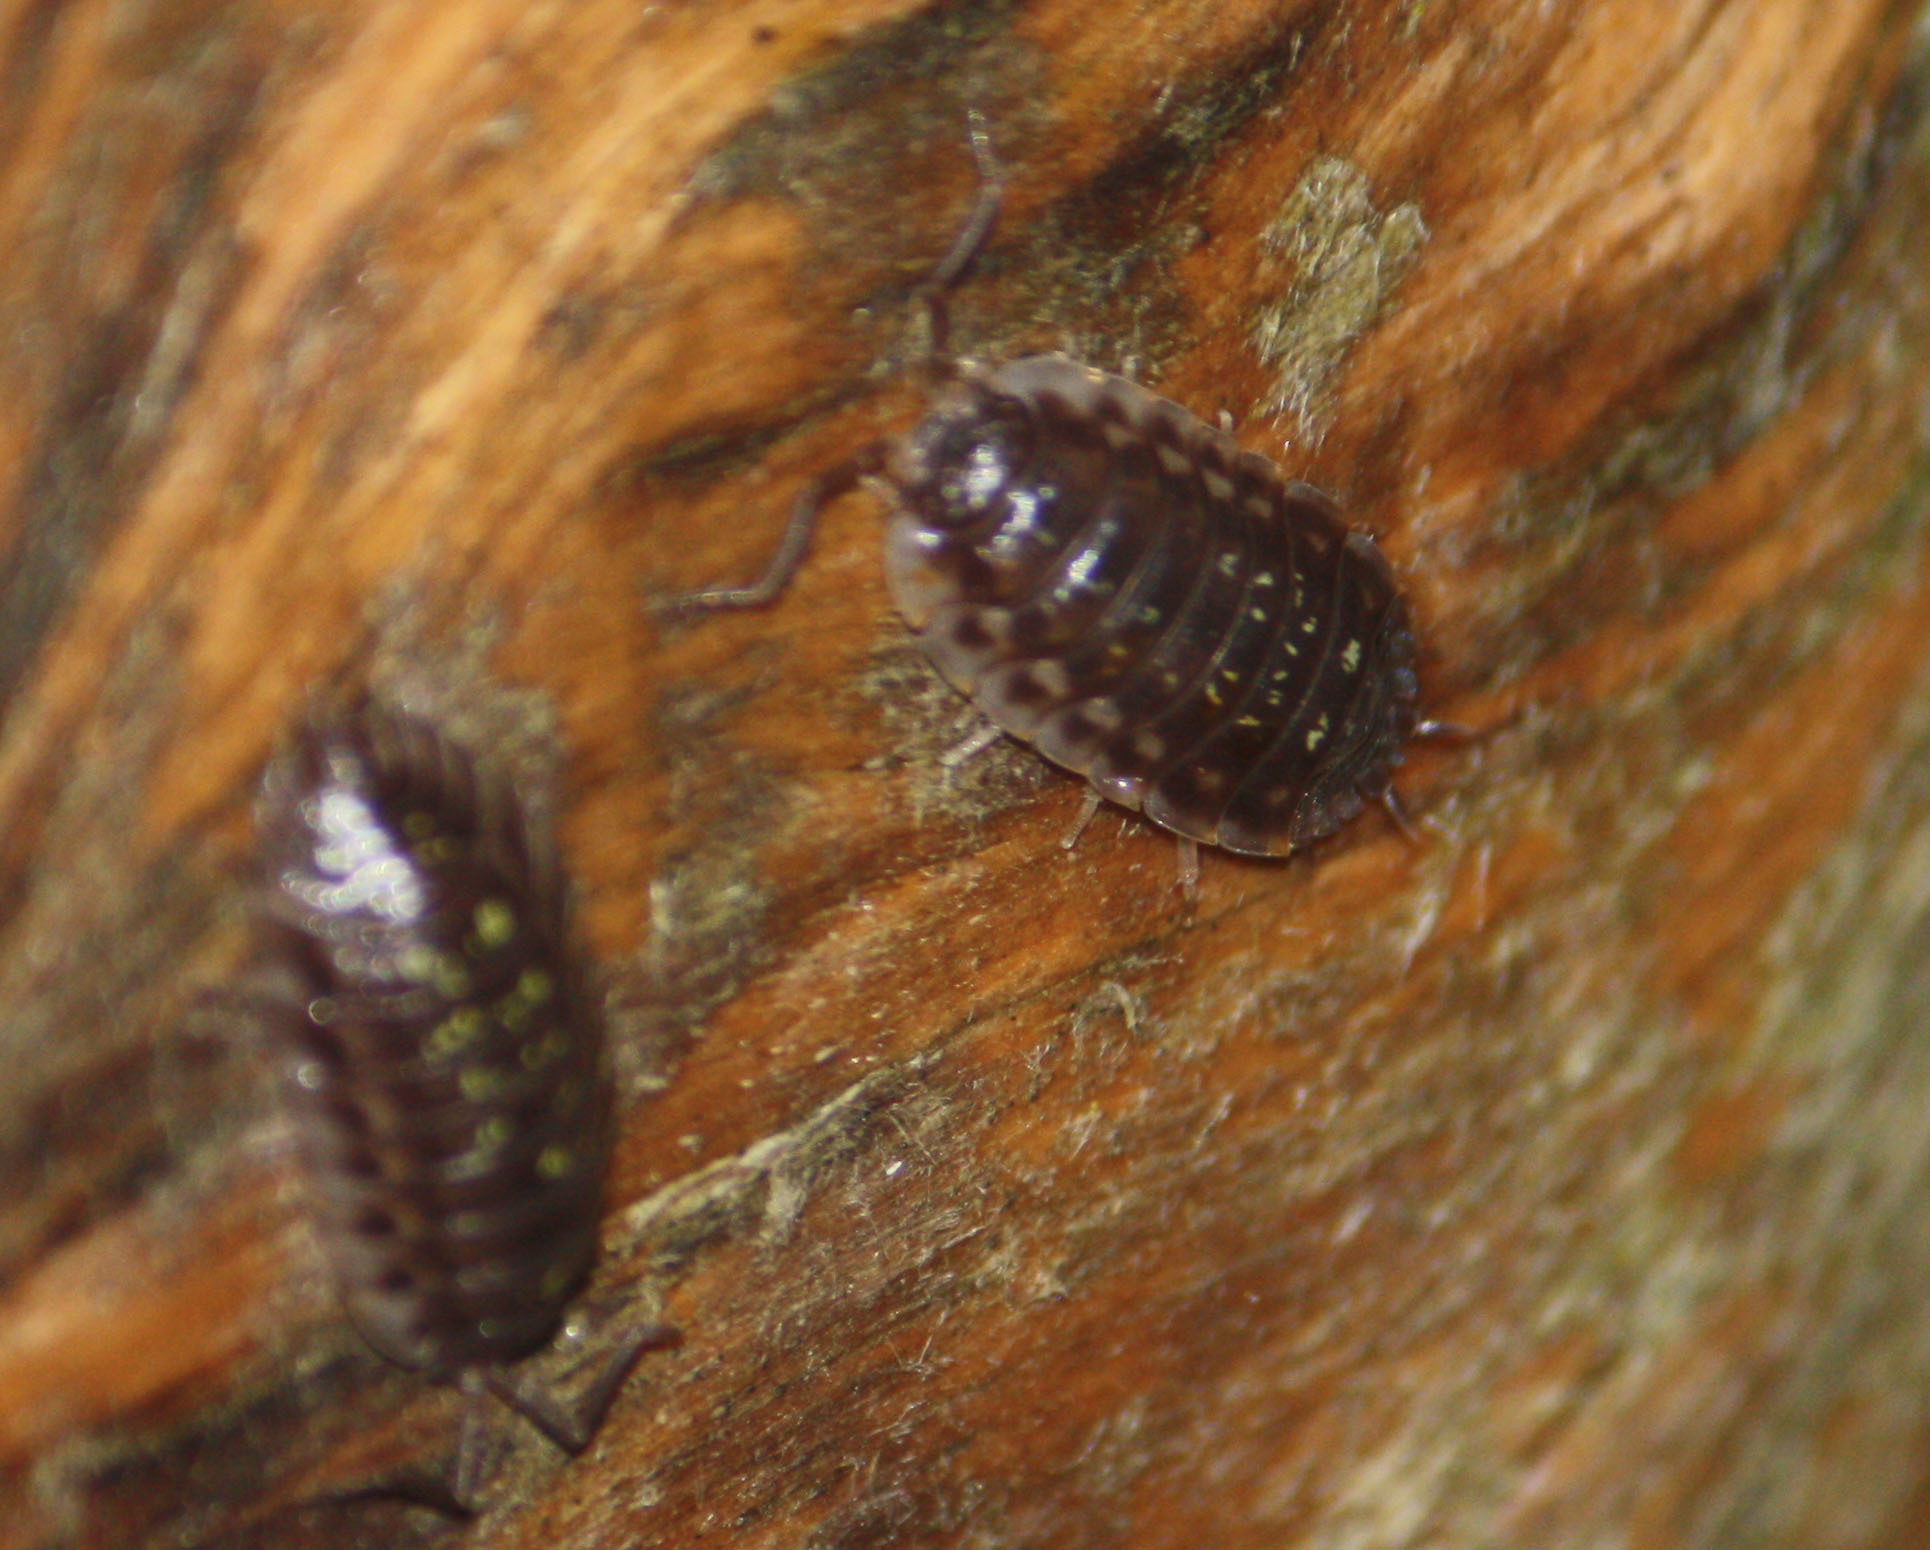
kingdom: Animalia
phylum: Arthropoda
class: Malacostraca
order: Isopoda
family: Oniscidae
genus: Oniscus
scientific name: Oniscus asellus
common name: Common shiny woodlouse
